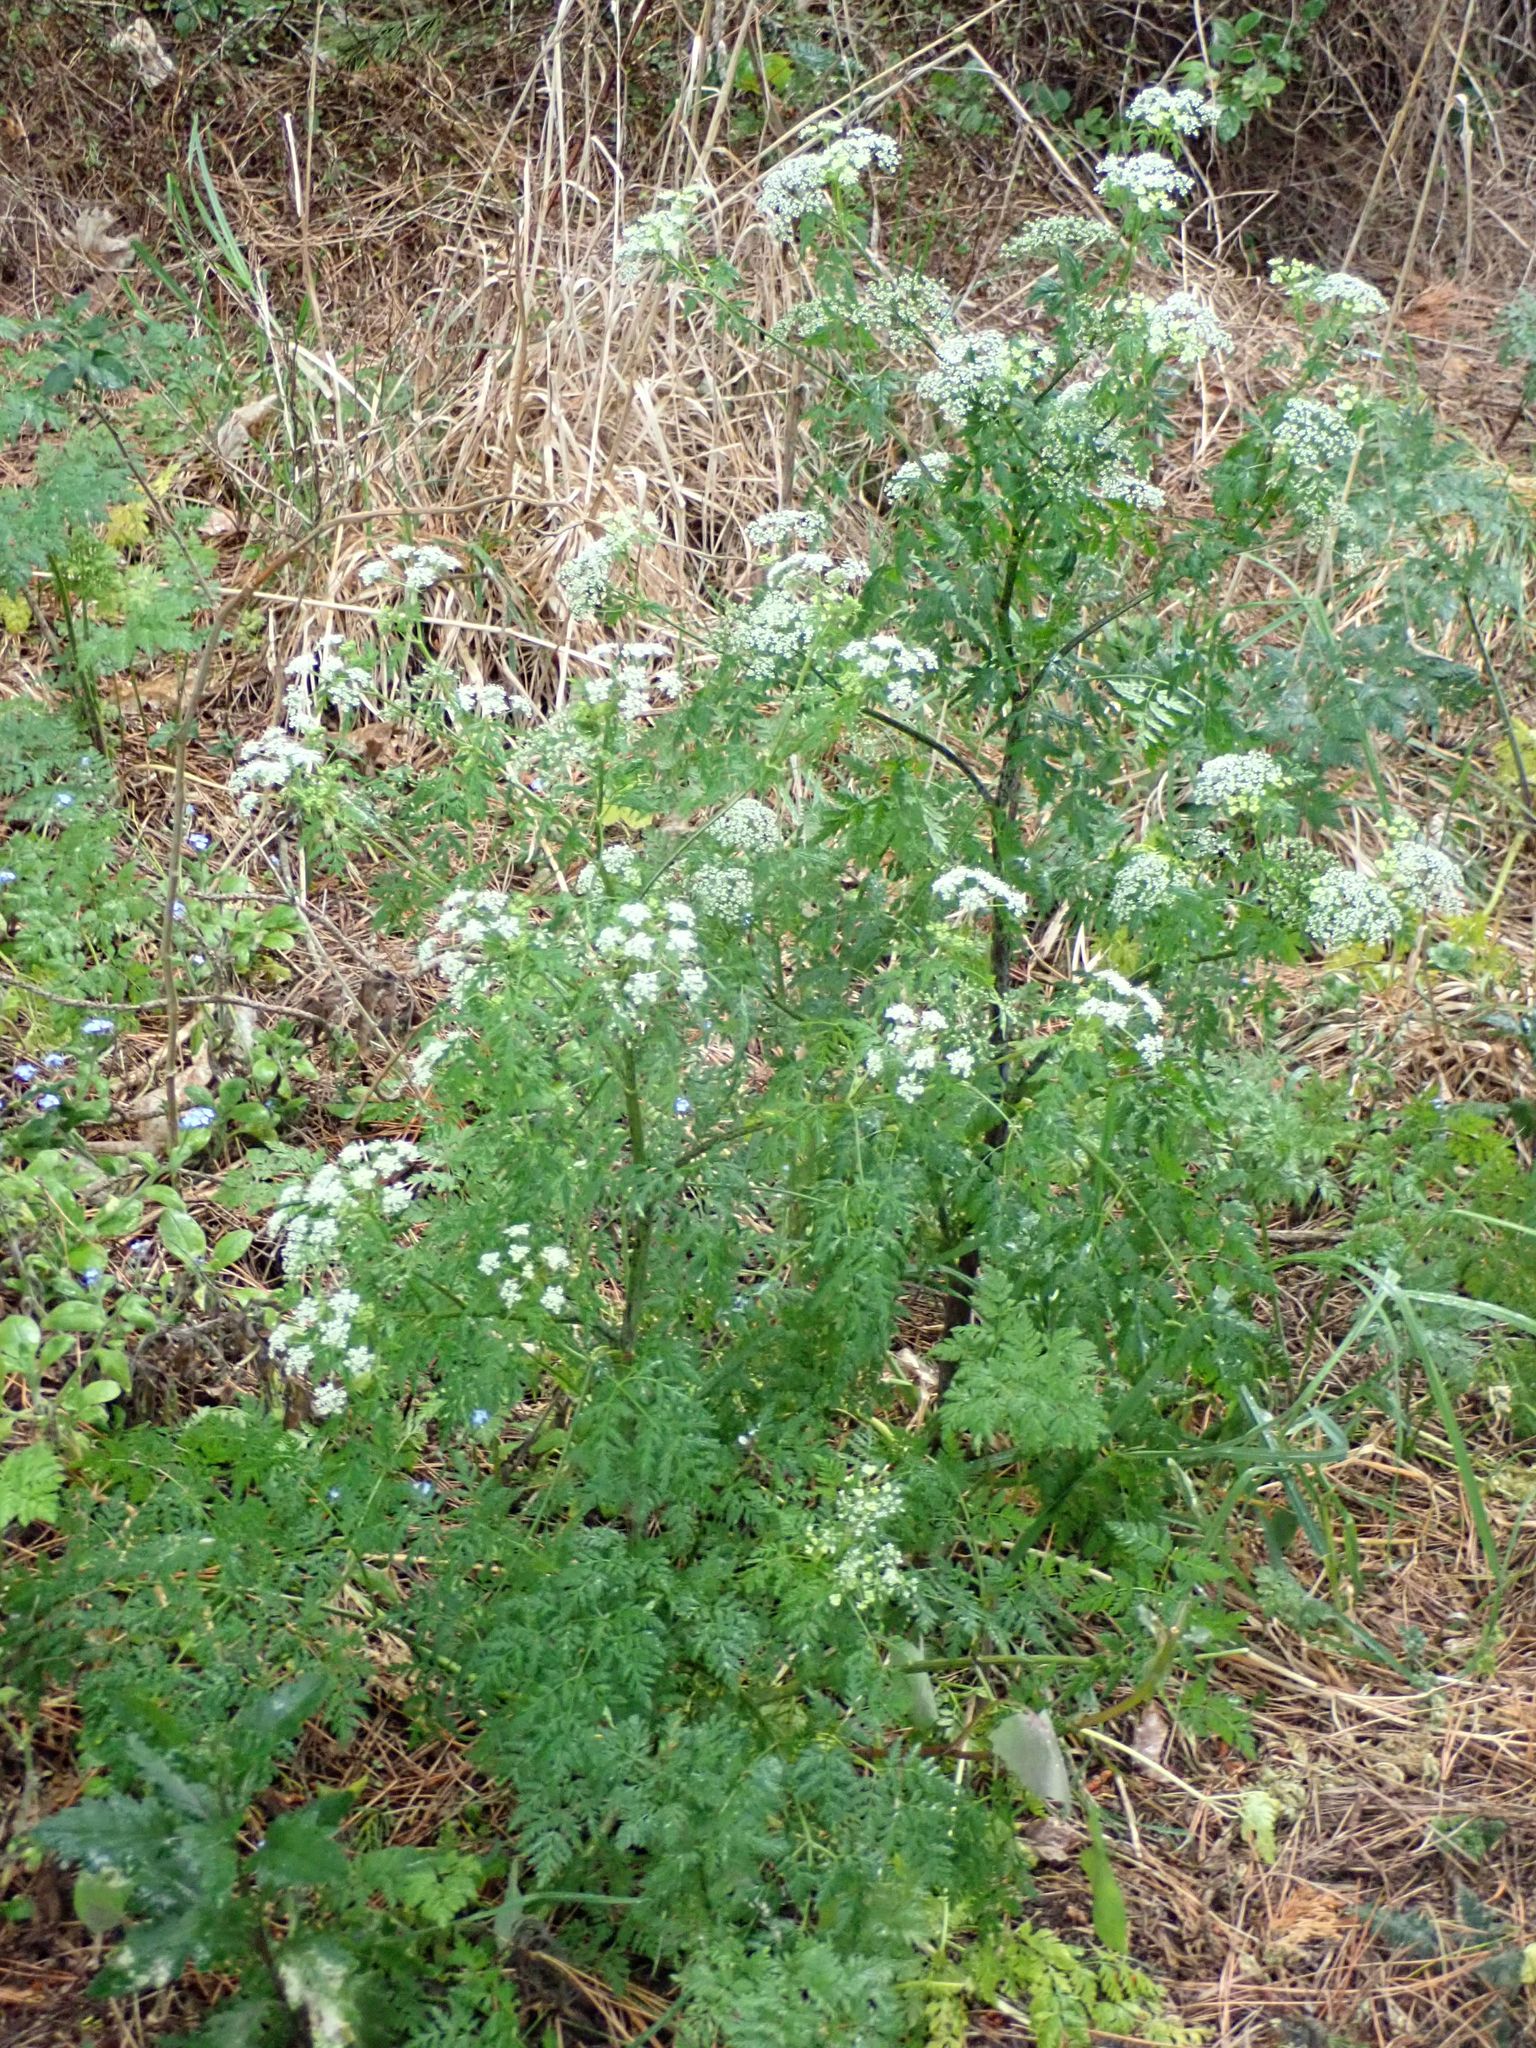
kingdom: Plantae
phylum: Tracheophyta
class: Magnoliopsida
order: Apiales
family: Apiaceae
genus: Conium
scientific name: Conium maculatum
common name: Hemlock
